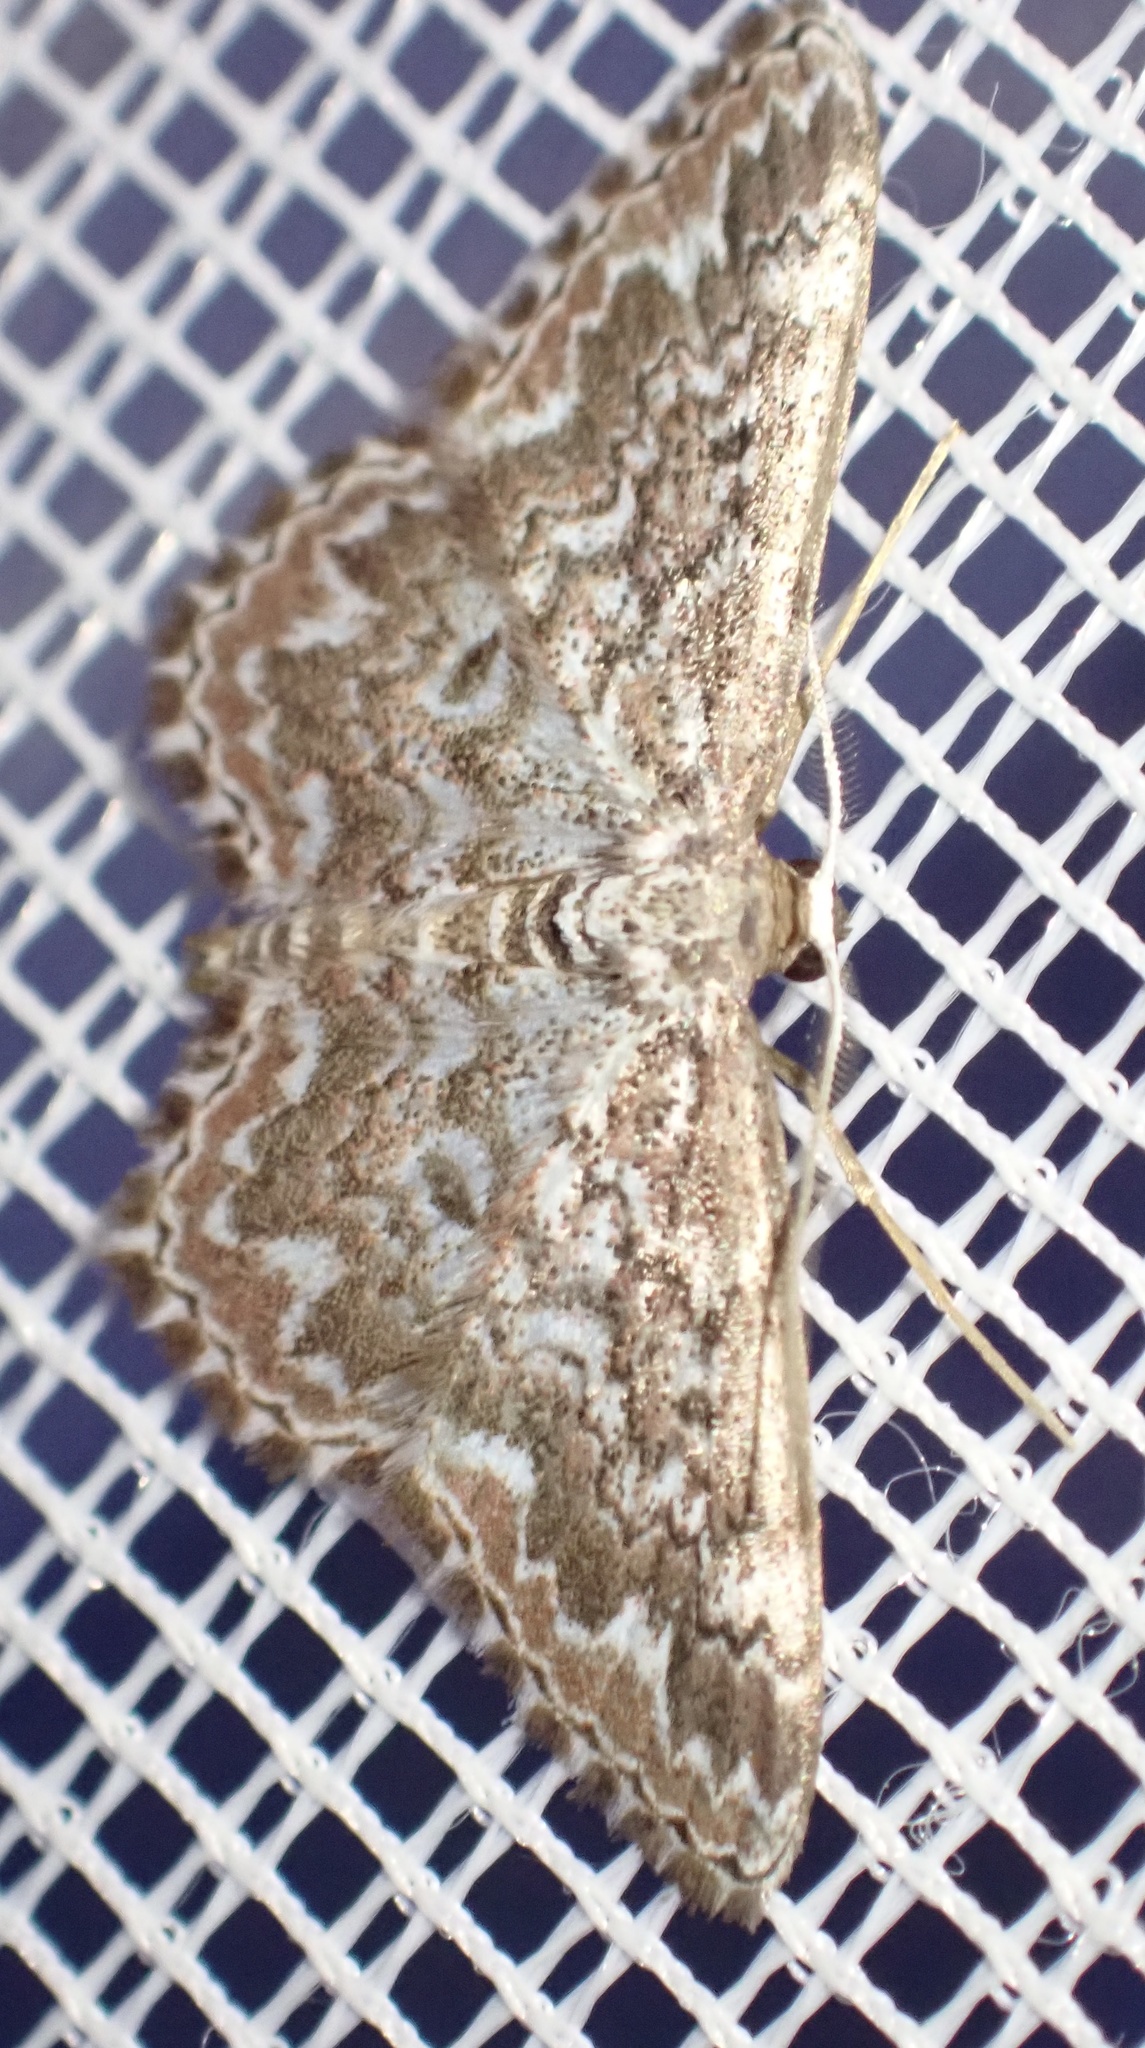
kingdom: Animalia
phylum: Arthropoda
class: Insecta
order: Lepidoptera
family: Geometridae
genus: Scopula
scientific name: Scopula inscriptata
